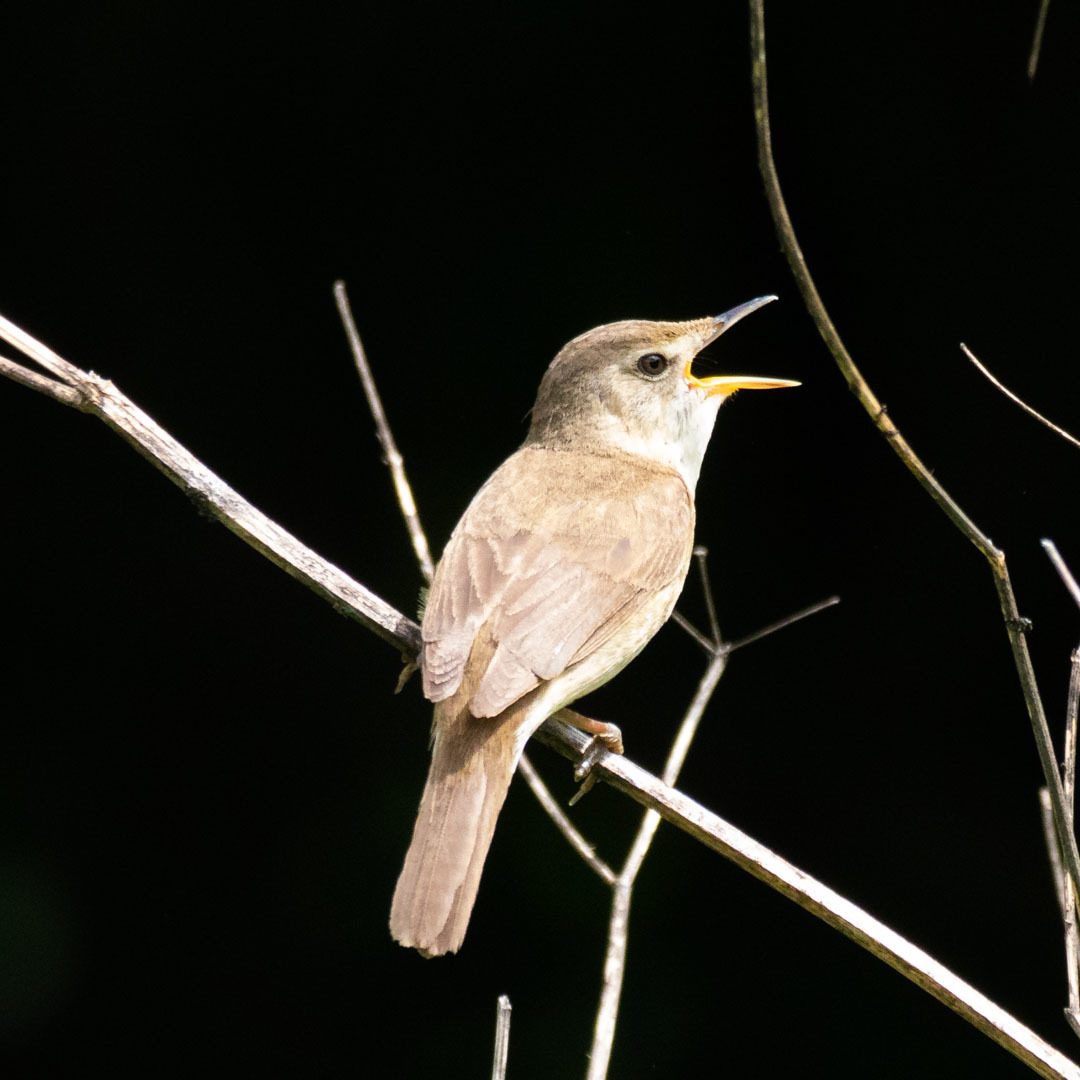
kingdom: Animalia
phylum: Chordata
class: Aves
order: Passeriformes
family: Acrocephalidae
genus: Acrocephalus
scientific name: Acrocephalus dumetorum
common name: Blyth's reed warbler
